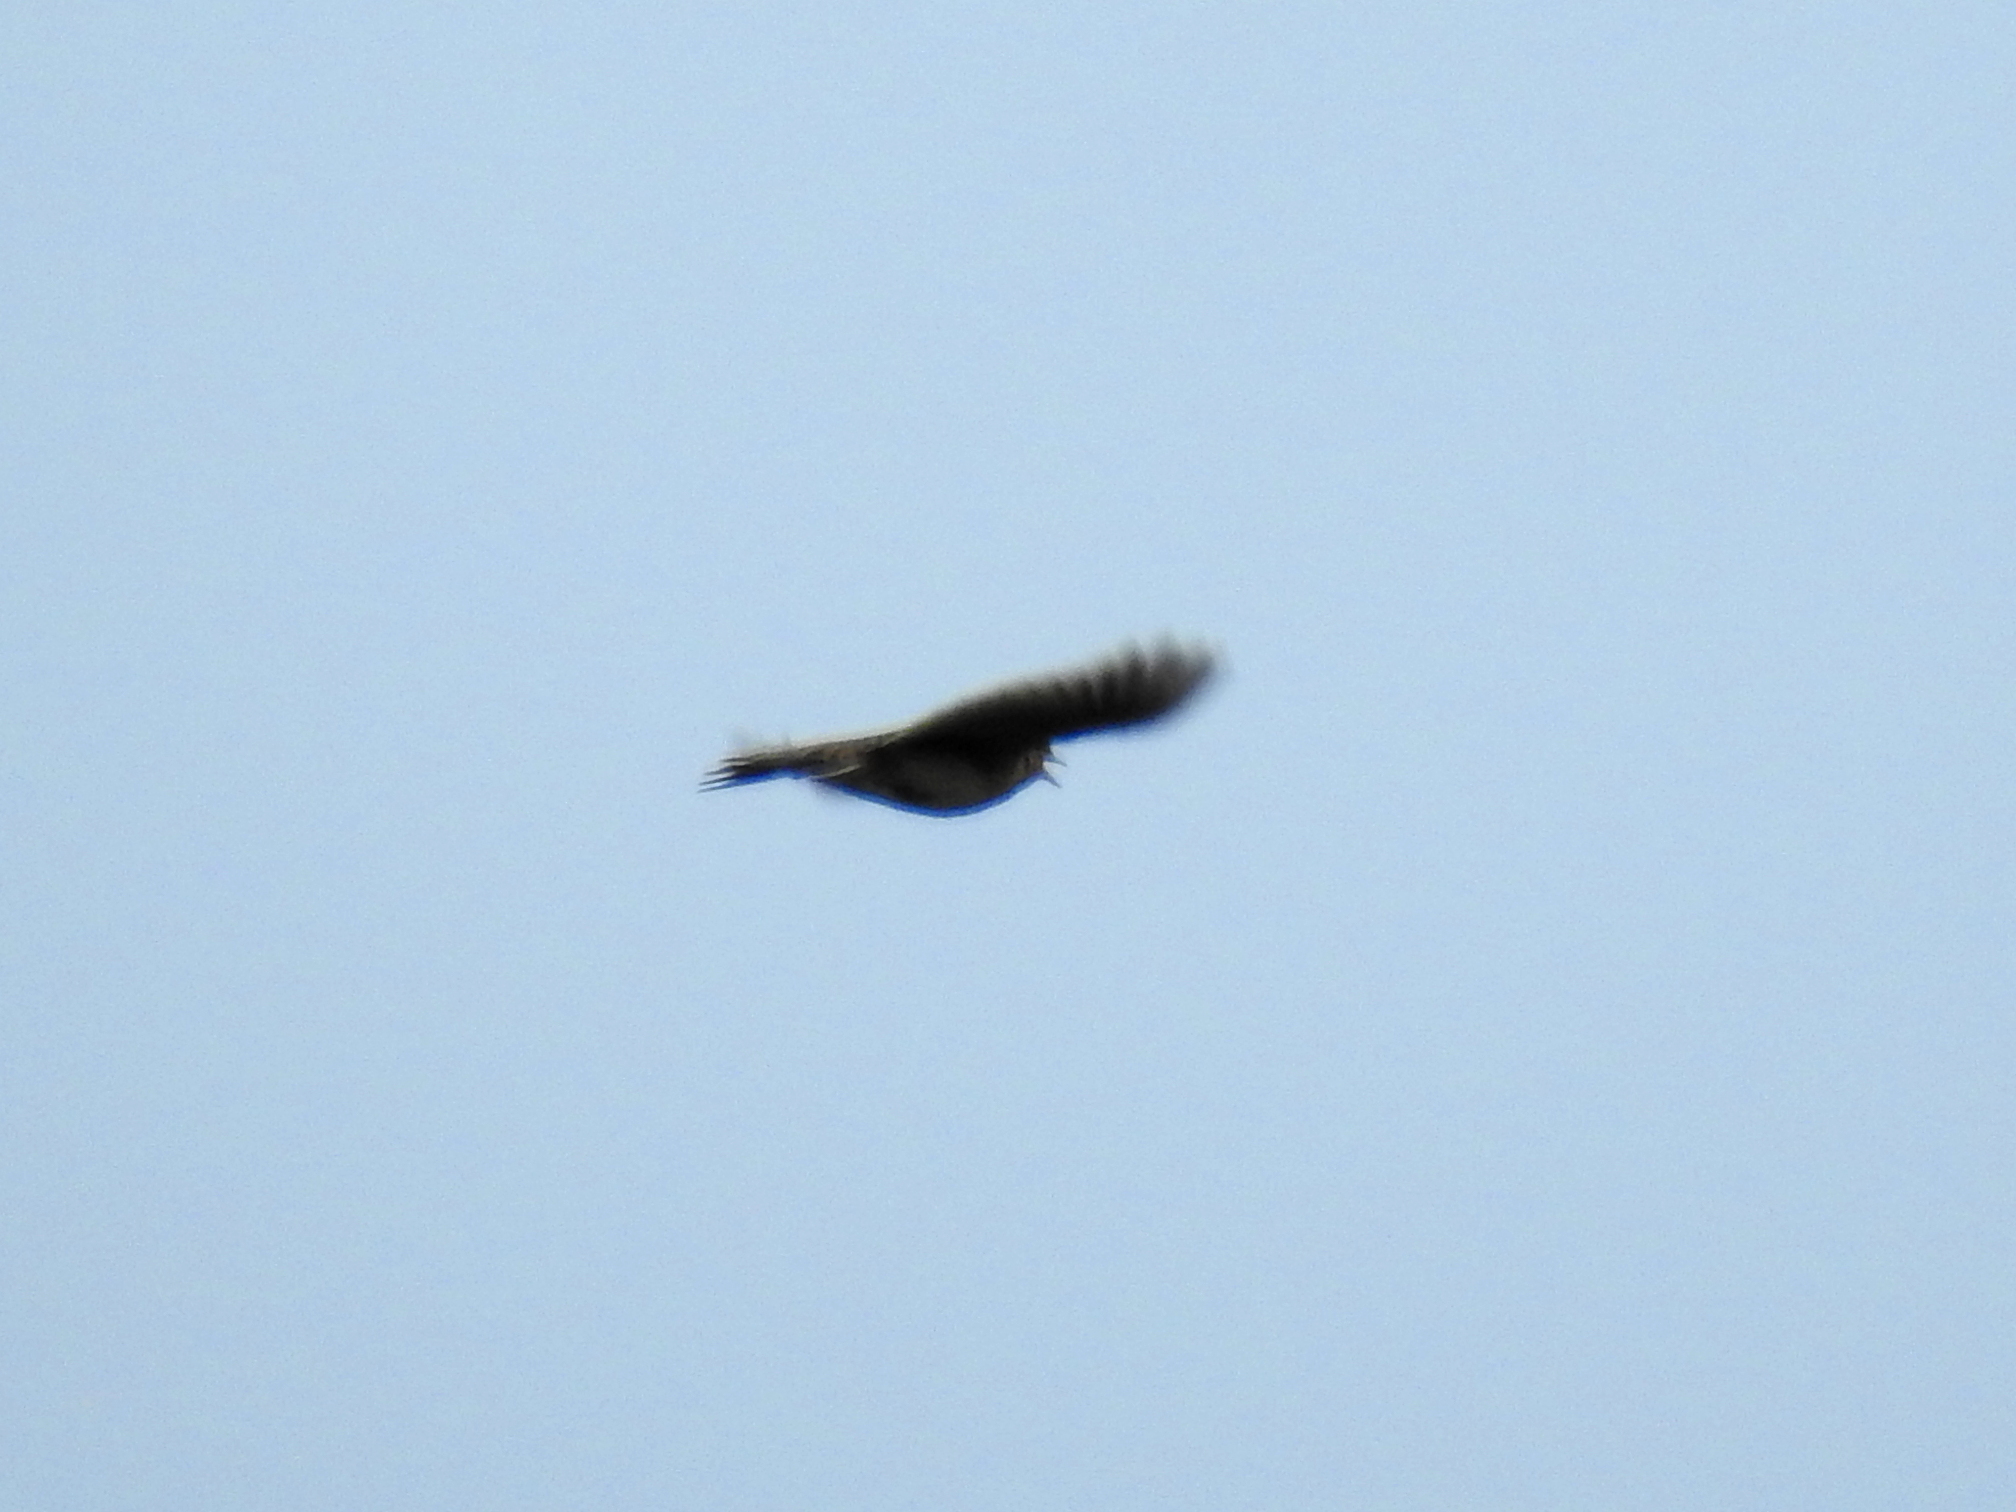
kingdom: Animalia
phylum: Chordata
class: Aves
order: Passeriformes
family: Alaudidae
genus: Alauda
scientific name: Alauda arvensis
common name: Eurasian skylark
